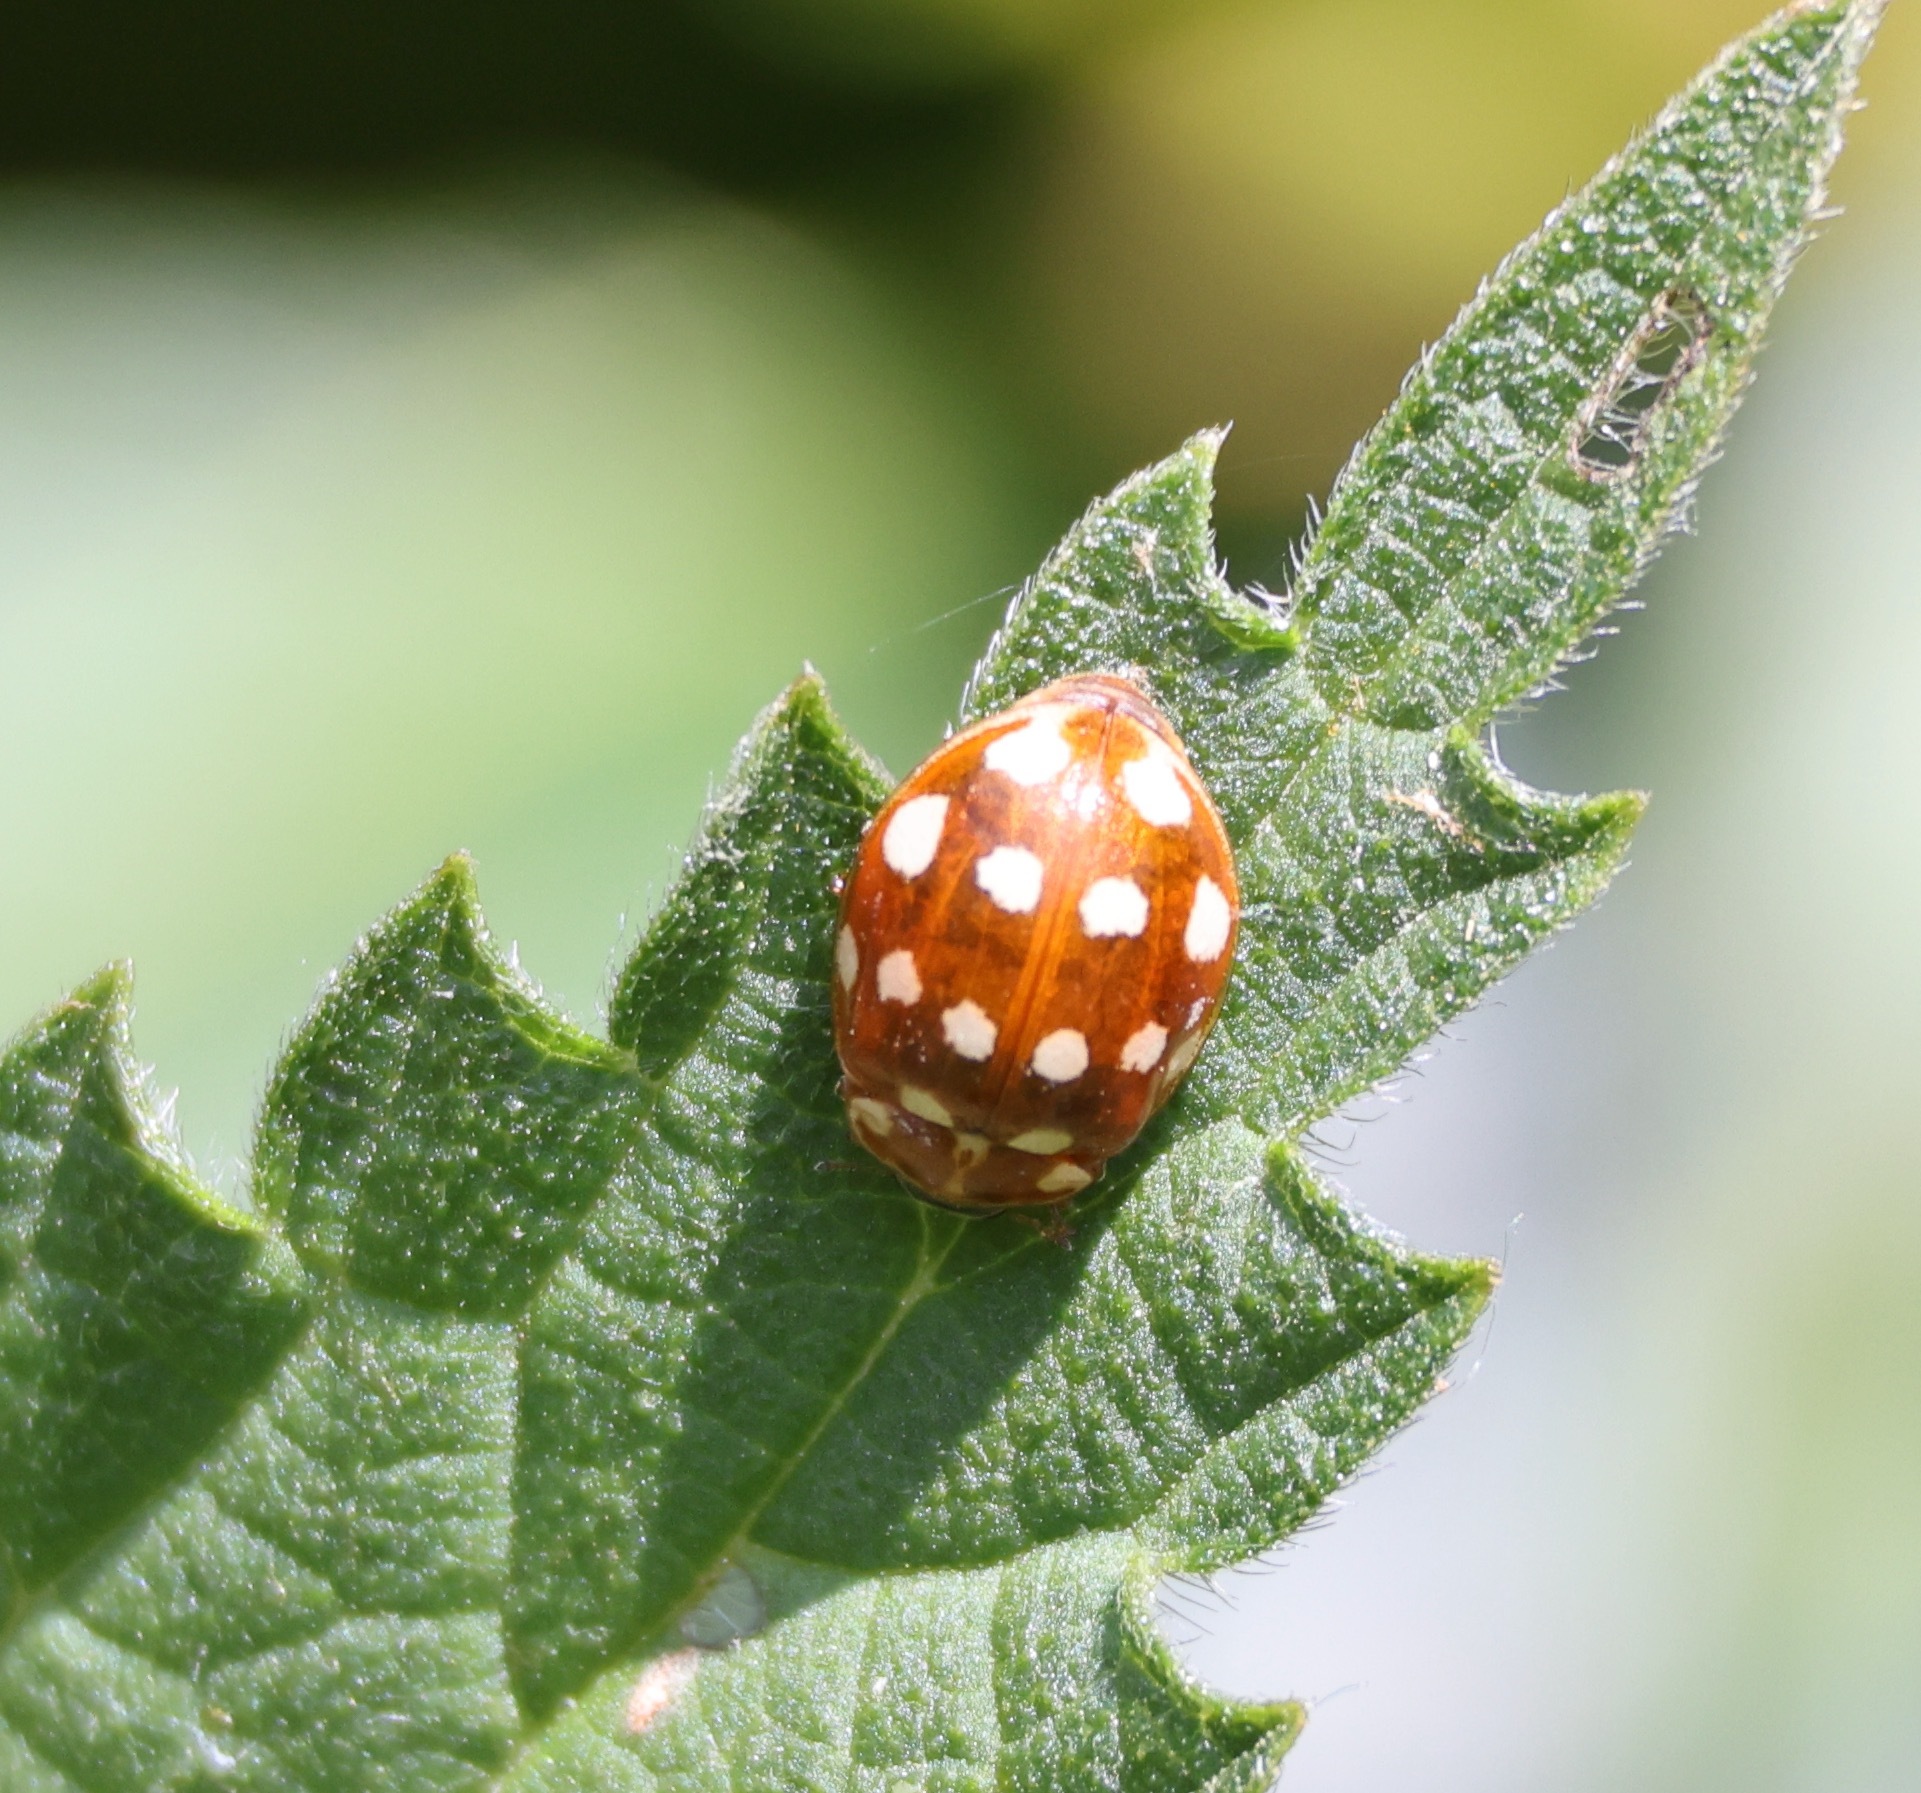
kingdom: Animalia
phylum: Arthropoda
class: Insecta
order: Coleoptera
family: Coccinellidae
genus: Calvia
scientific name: Calvia quatuordecimguttata
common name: Cream-spot ladybird
